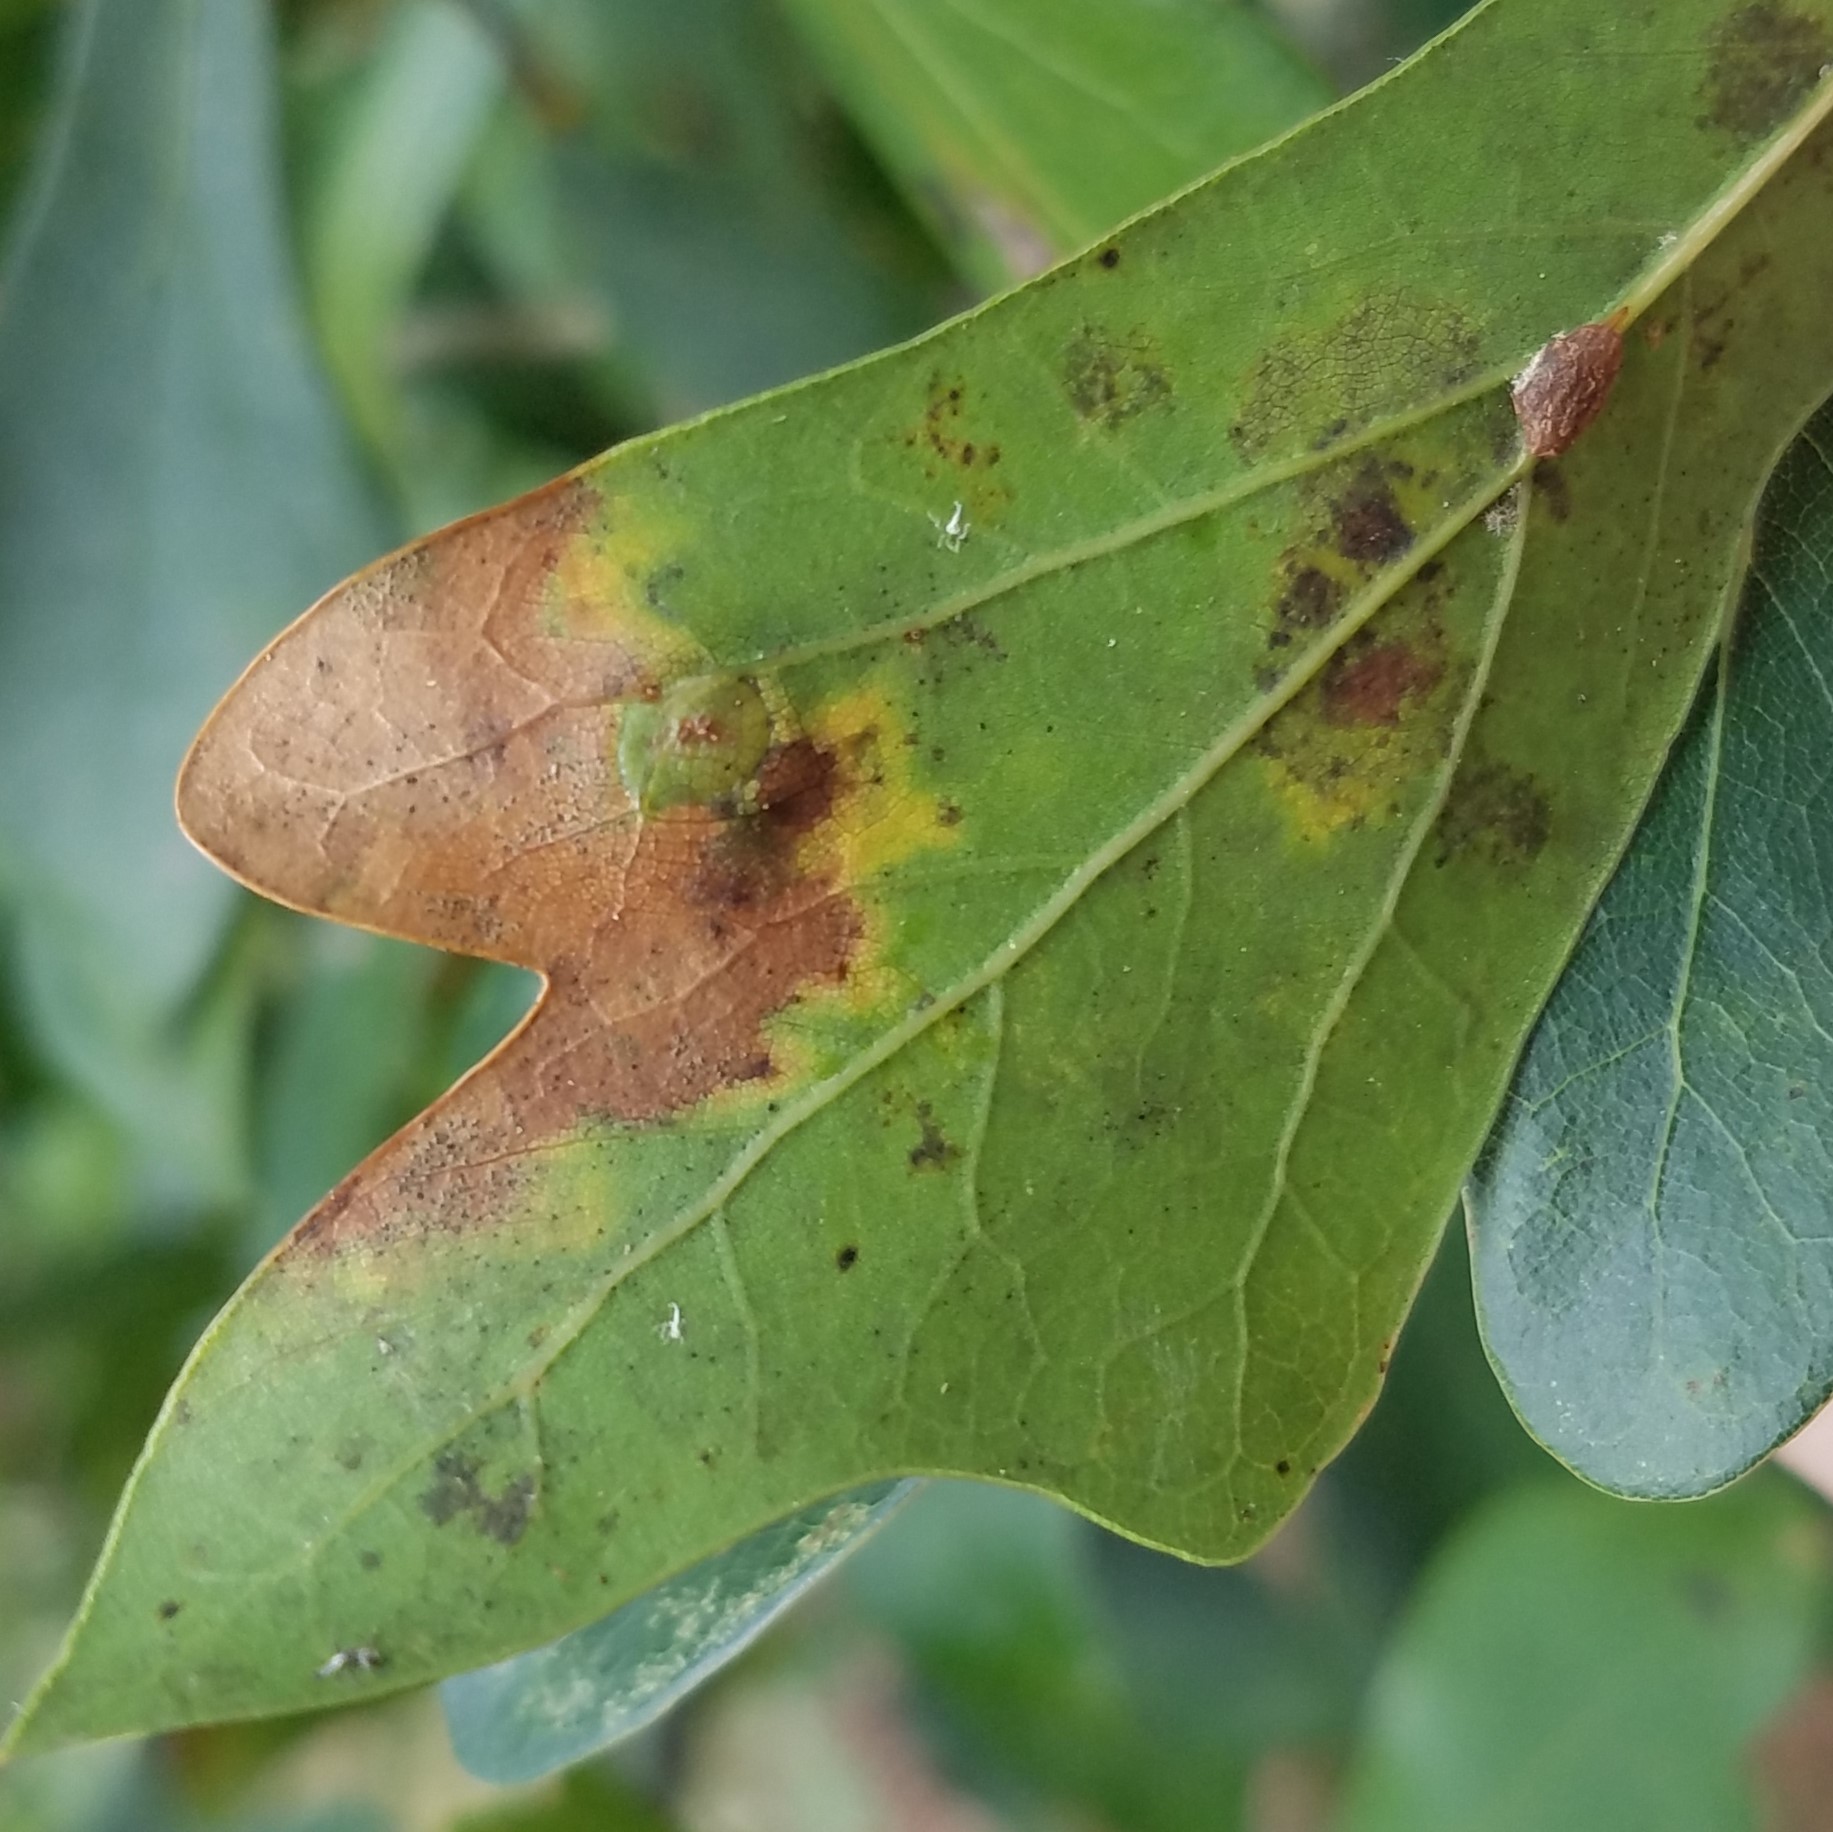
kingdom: Animalia
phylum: Arthropoda
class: Insecta
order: Diptera
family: Cecidomyiidae
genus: Polystepha
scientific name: Polystepha pilulae
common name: Oak leaf gall midge
